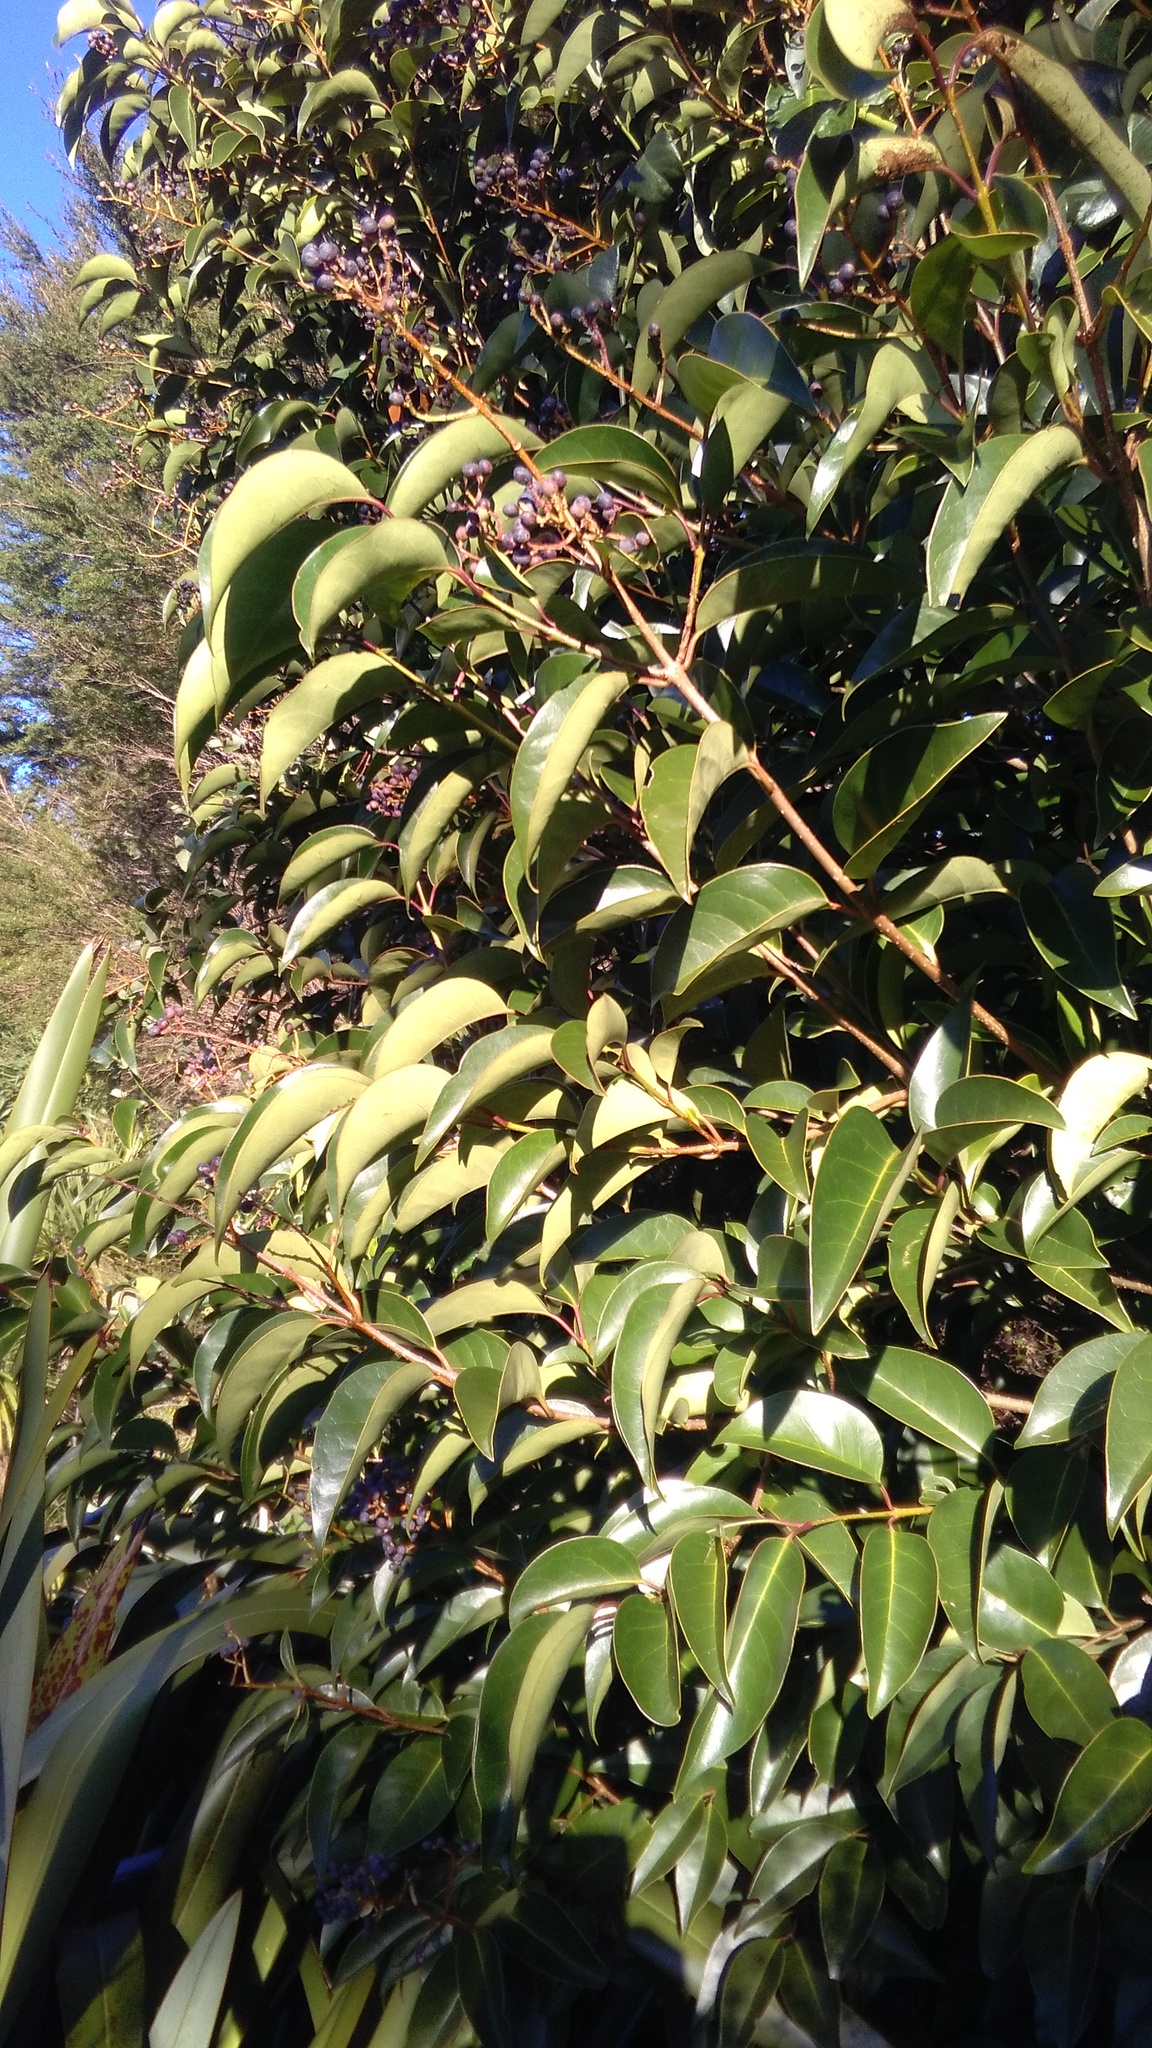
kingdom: Plantae
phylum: Tracheophyta
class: Magnoliopsida
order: Lamiales
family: Oleaceae
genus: Ligustrum
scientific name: Ligustrum lucidum
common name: Glossy privet
